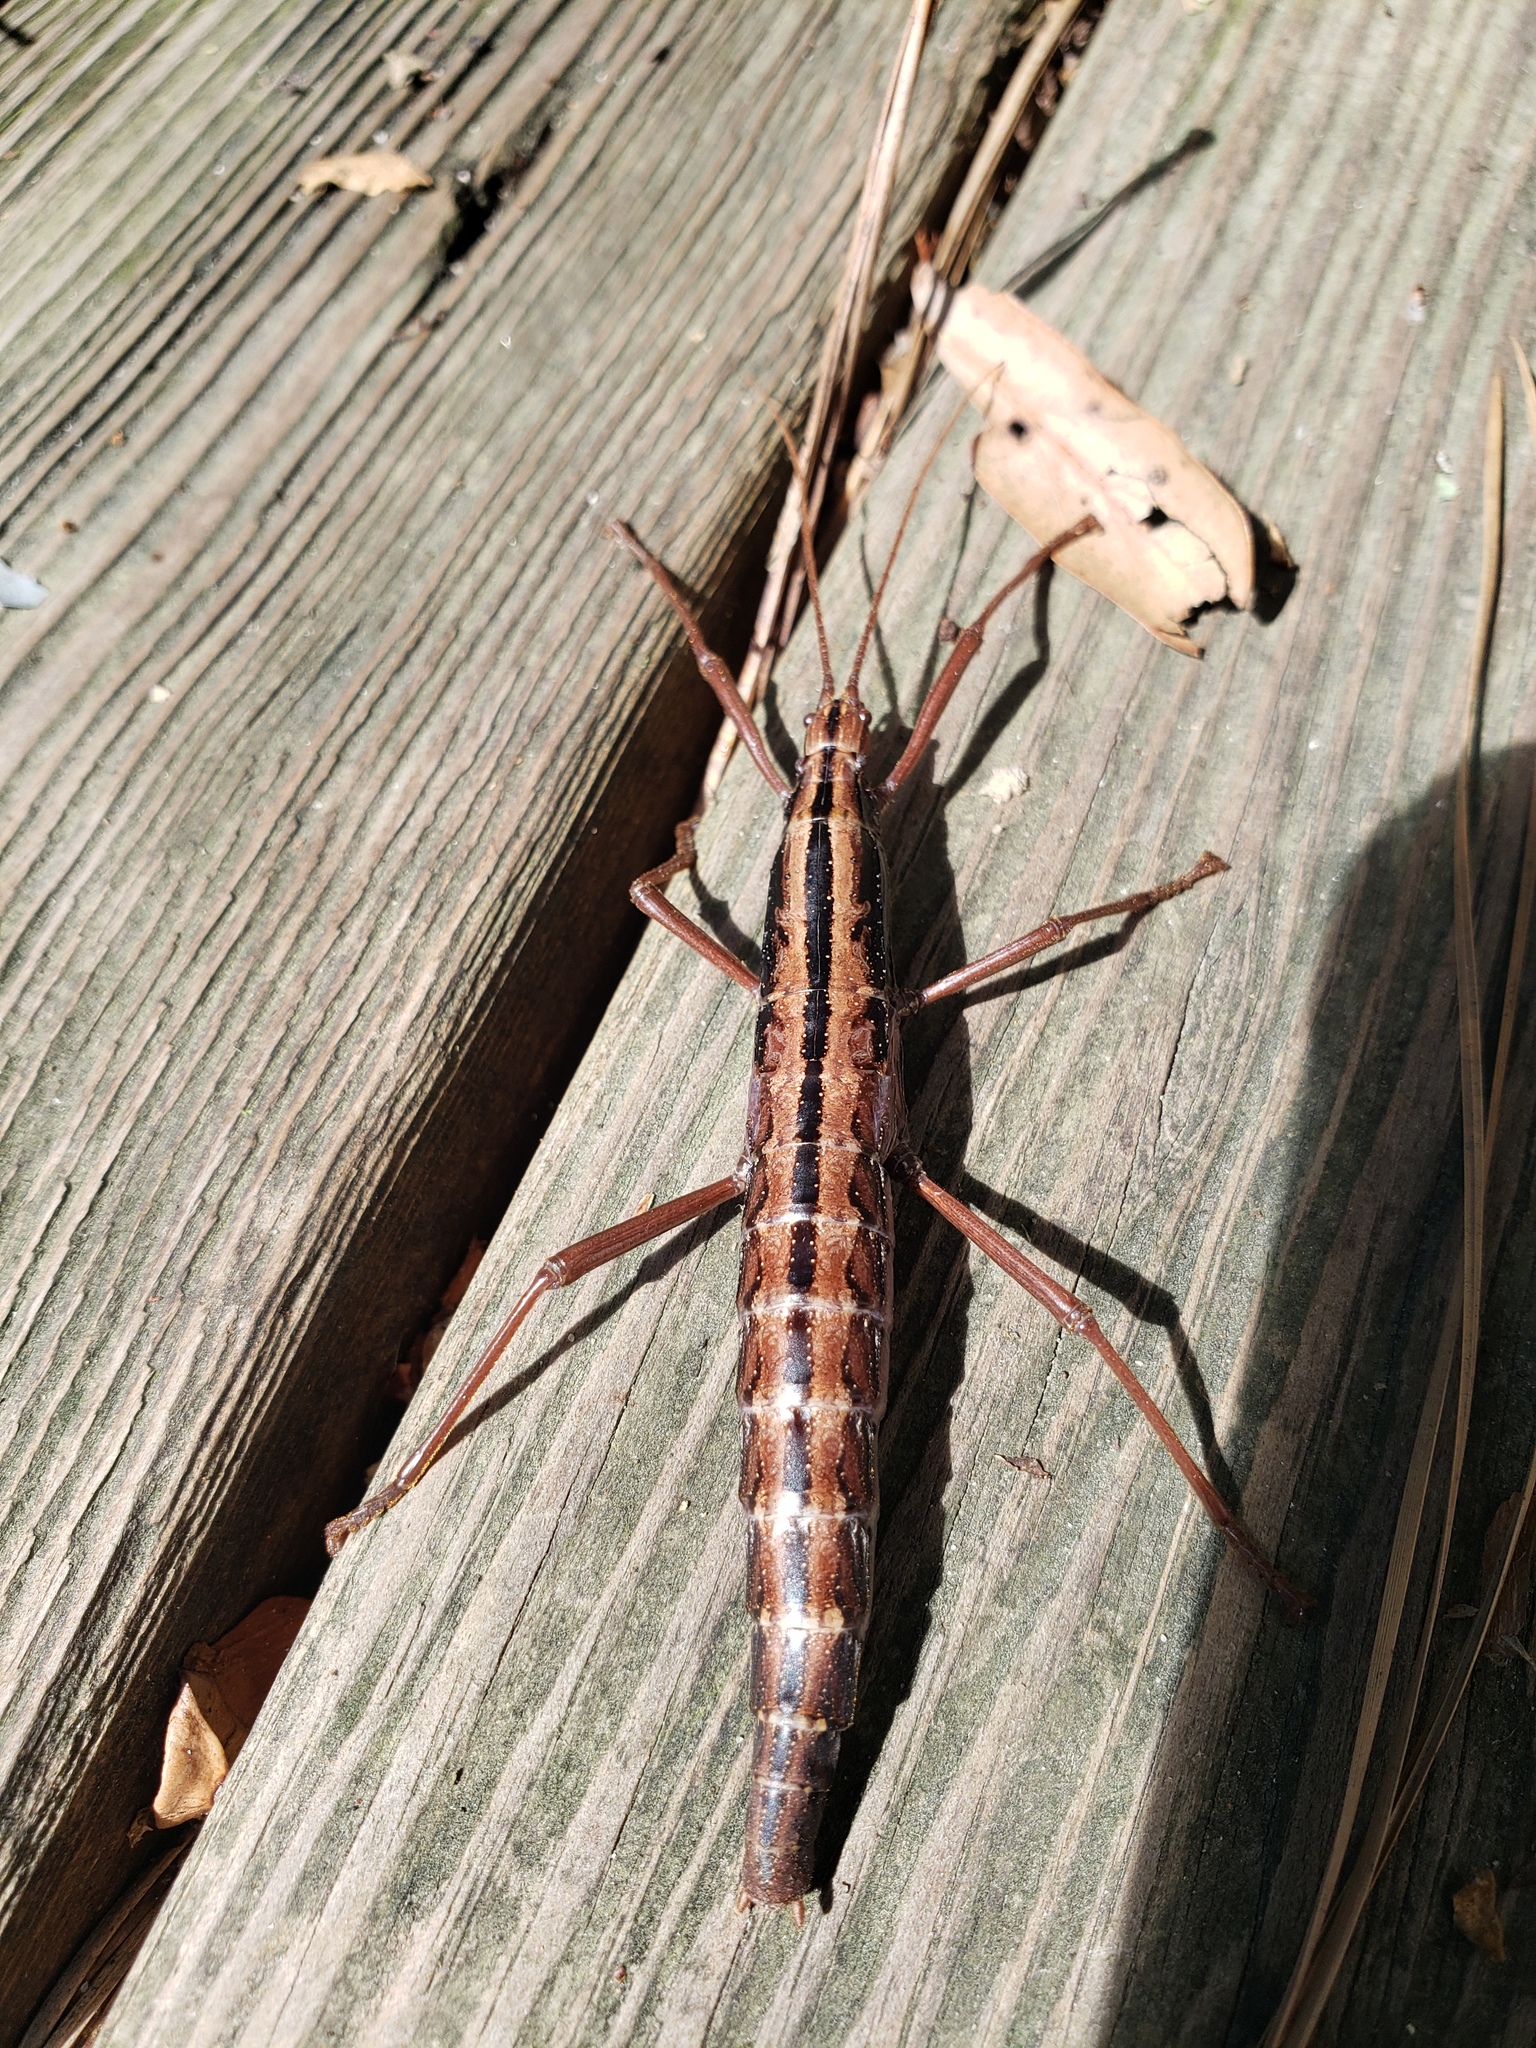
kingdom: Animalia
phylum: Arthropoda
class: Insecta
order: Phasmida
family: Pseudophasmatidae
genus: Anisomorpha
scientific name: Anisomorpha buprestoides
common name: Florida stick insect
